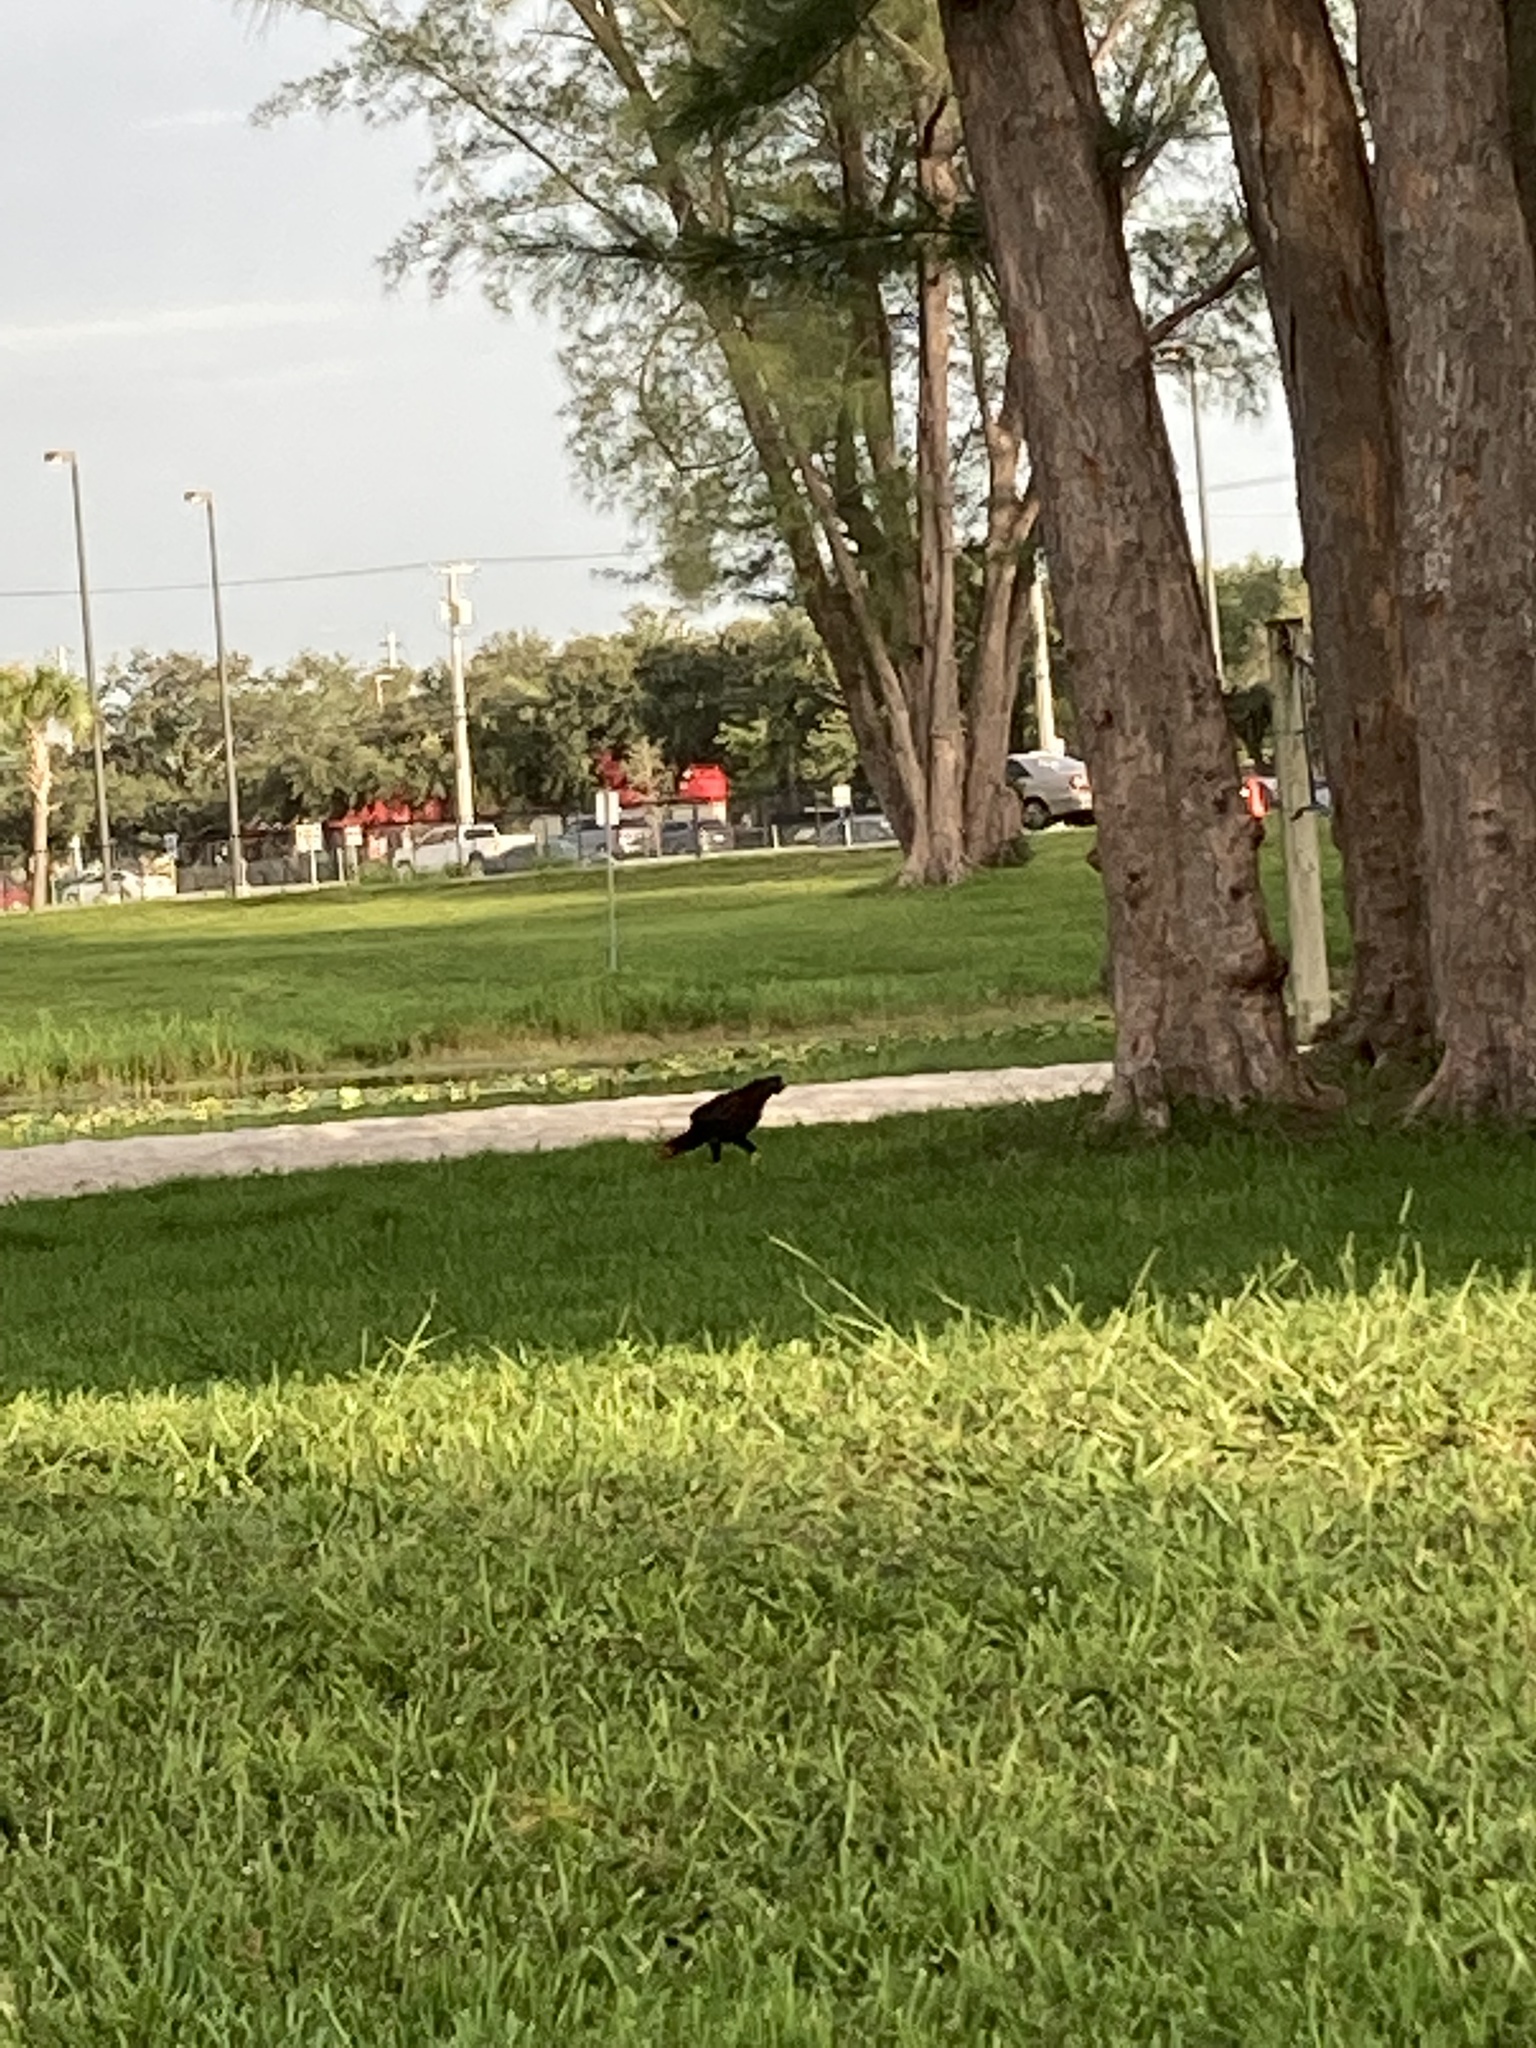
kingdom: Animalia
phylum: Chordata
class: Aves
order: Galliformes
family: Phasianidae
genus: Gallus
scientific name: Gallus gallus
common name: Red junglefowl
